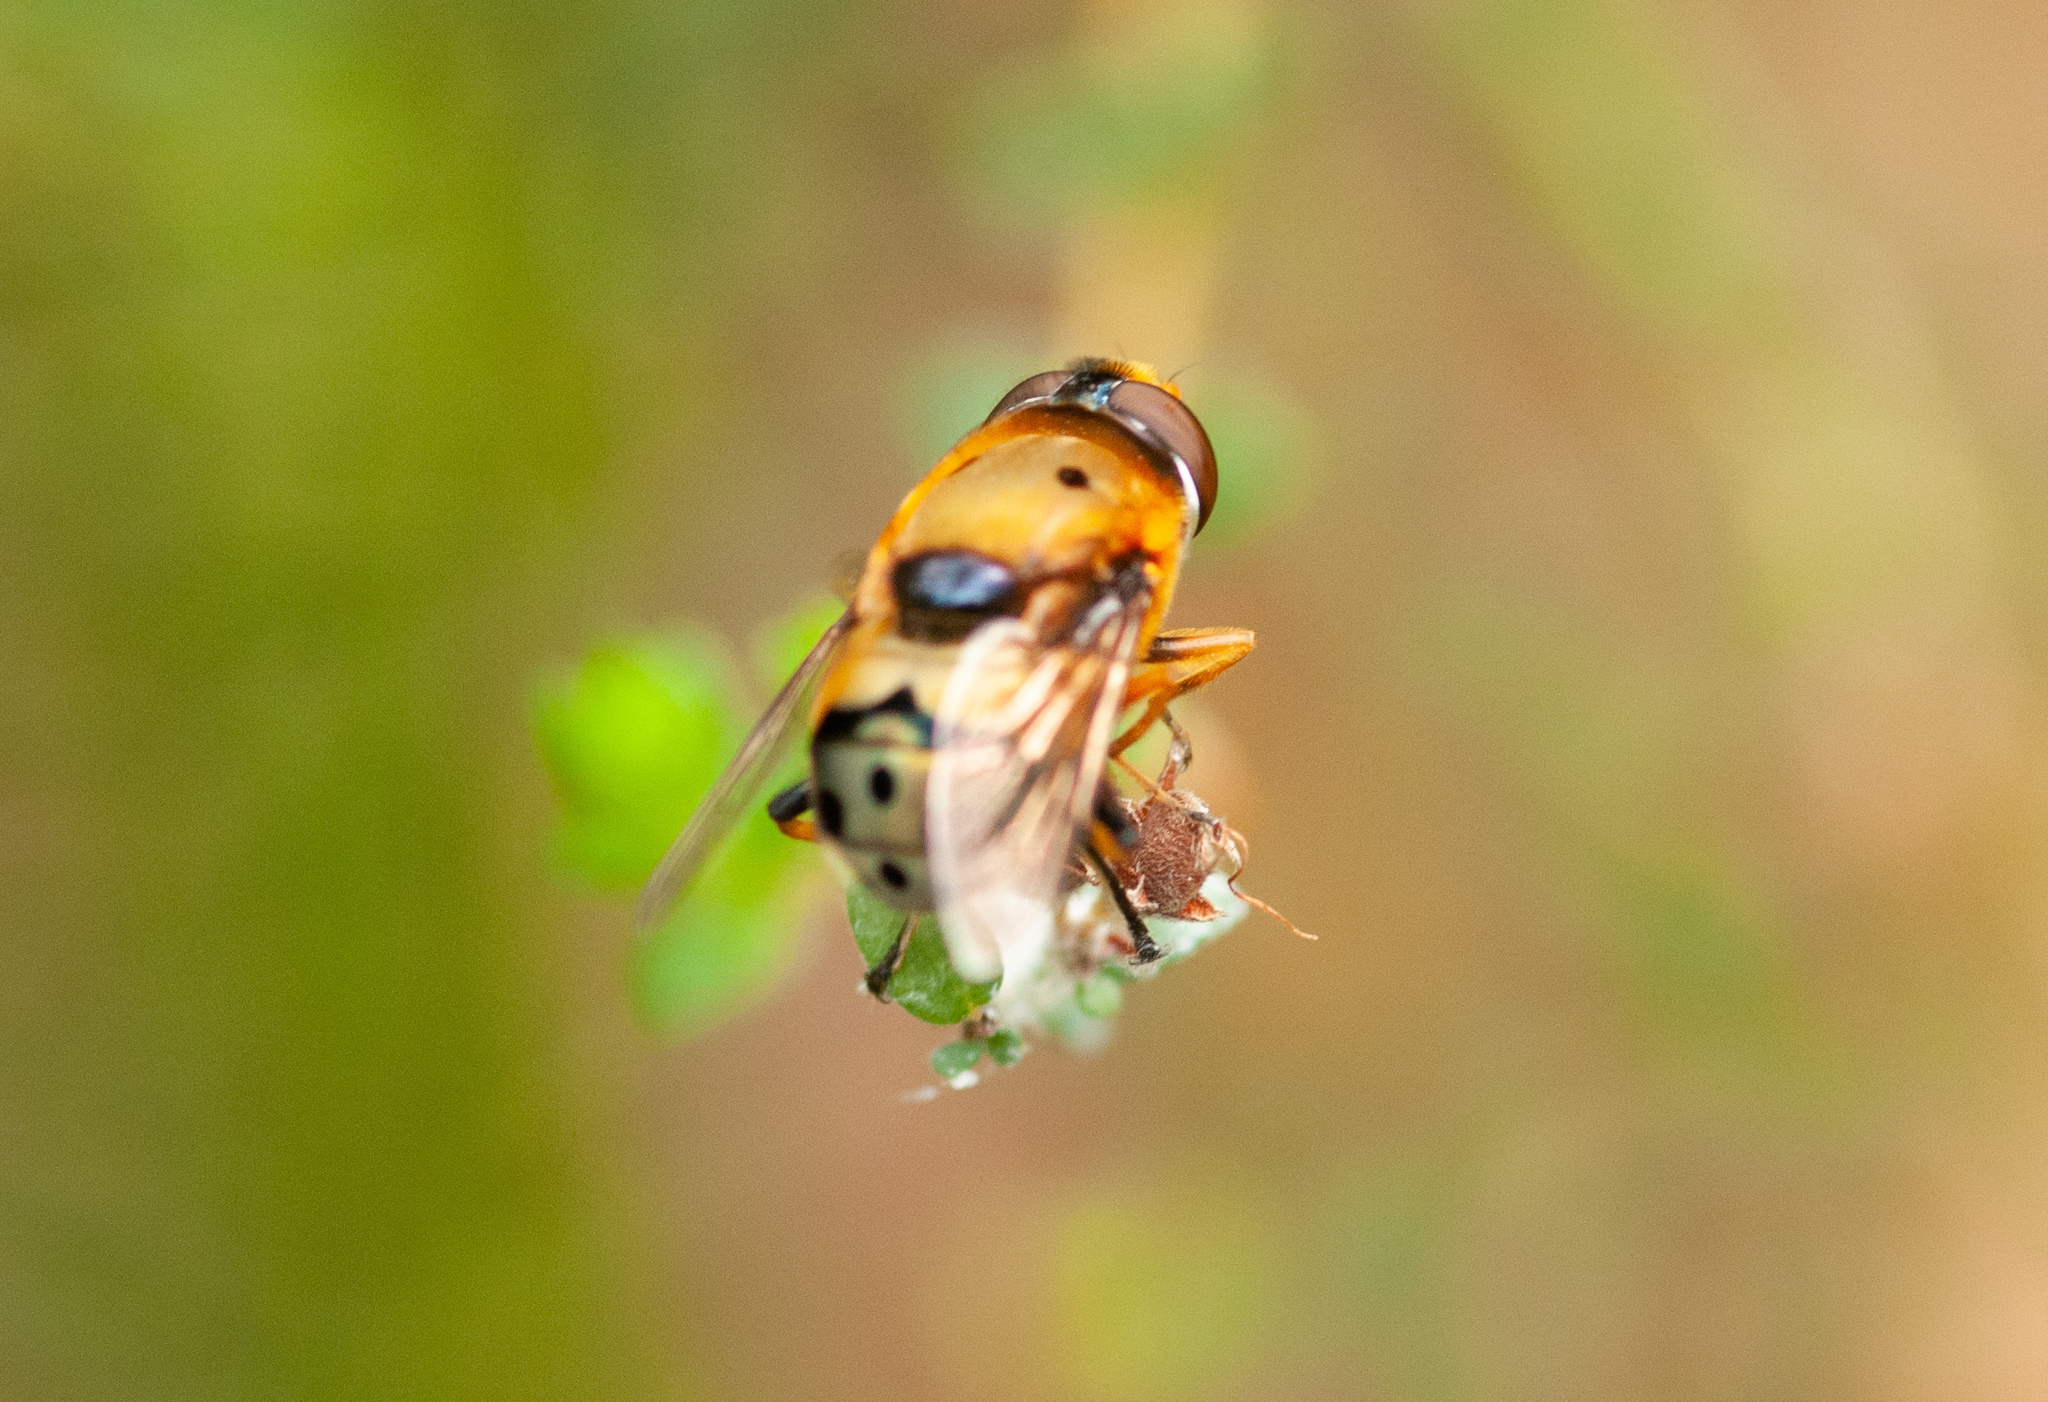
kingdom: Animalia
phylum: Arthropoda
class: Insecta
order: Diptera
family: Syrphidae
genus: Austalis
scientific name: Austalis pulchella
